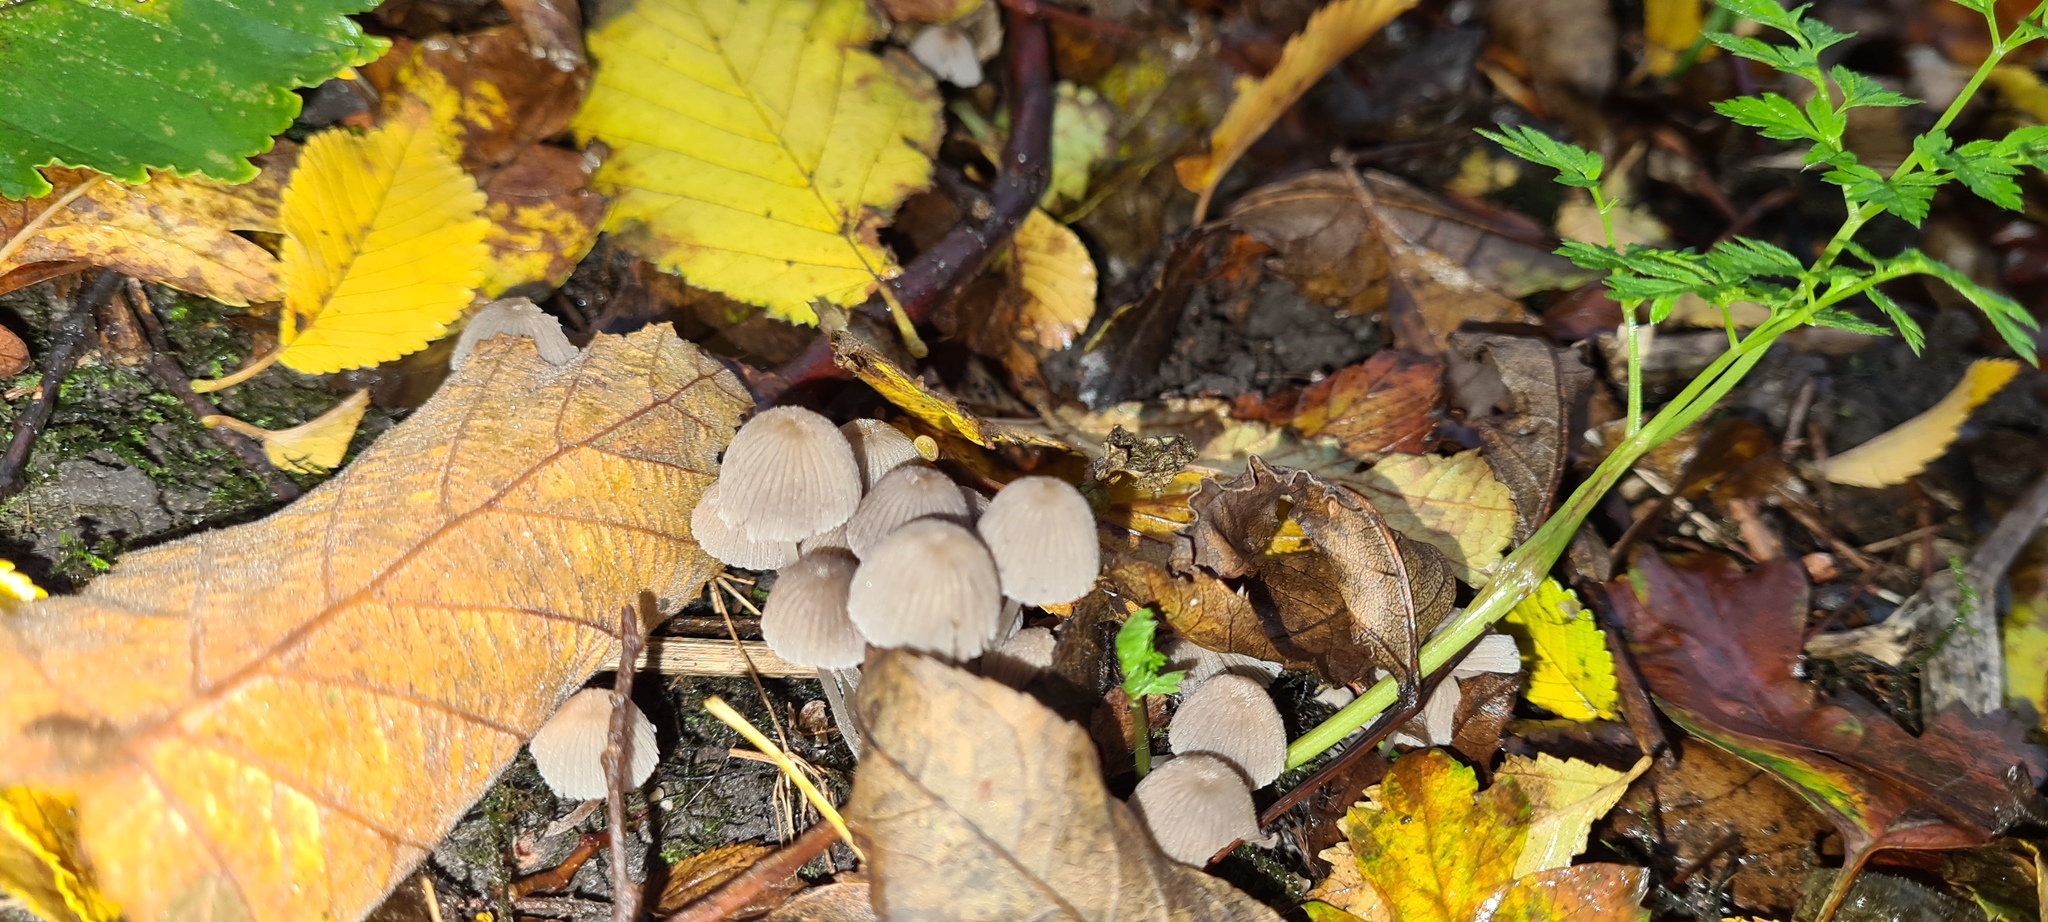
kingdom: Fungi
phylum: Basidiomycota
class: Agaricomycetes
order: Agaricales
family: Psathyrellaceae
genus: Coprinellus
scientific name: Coprinellus disseminatus
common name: Fairies' bonnets
